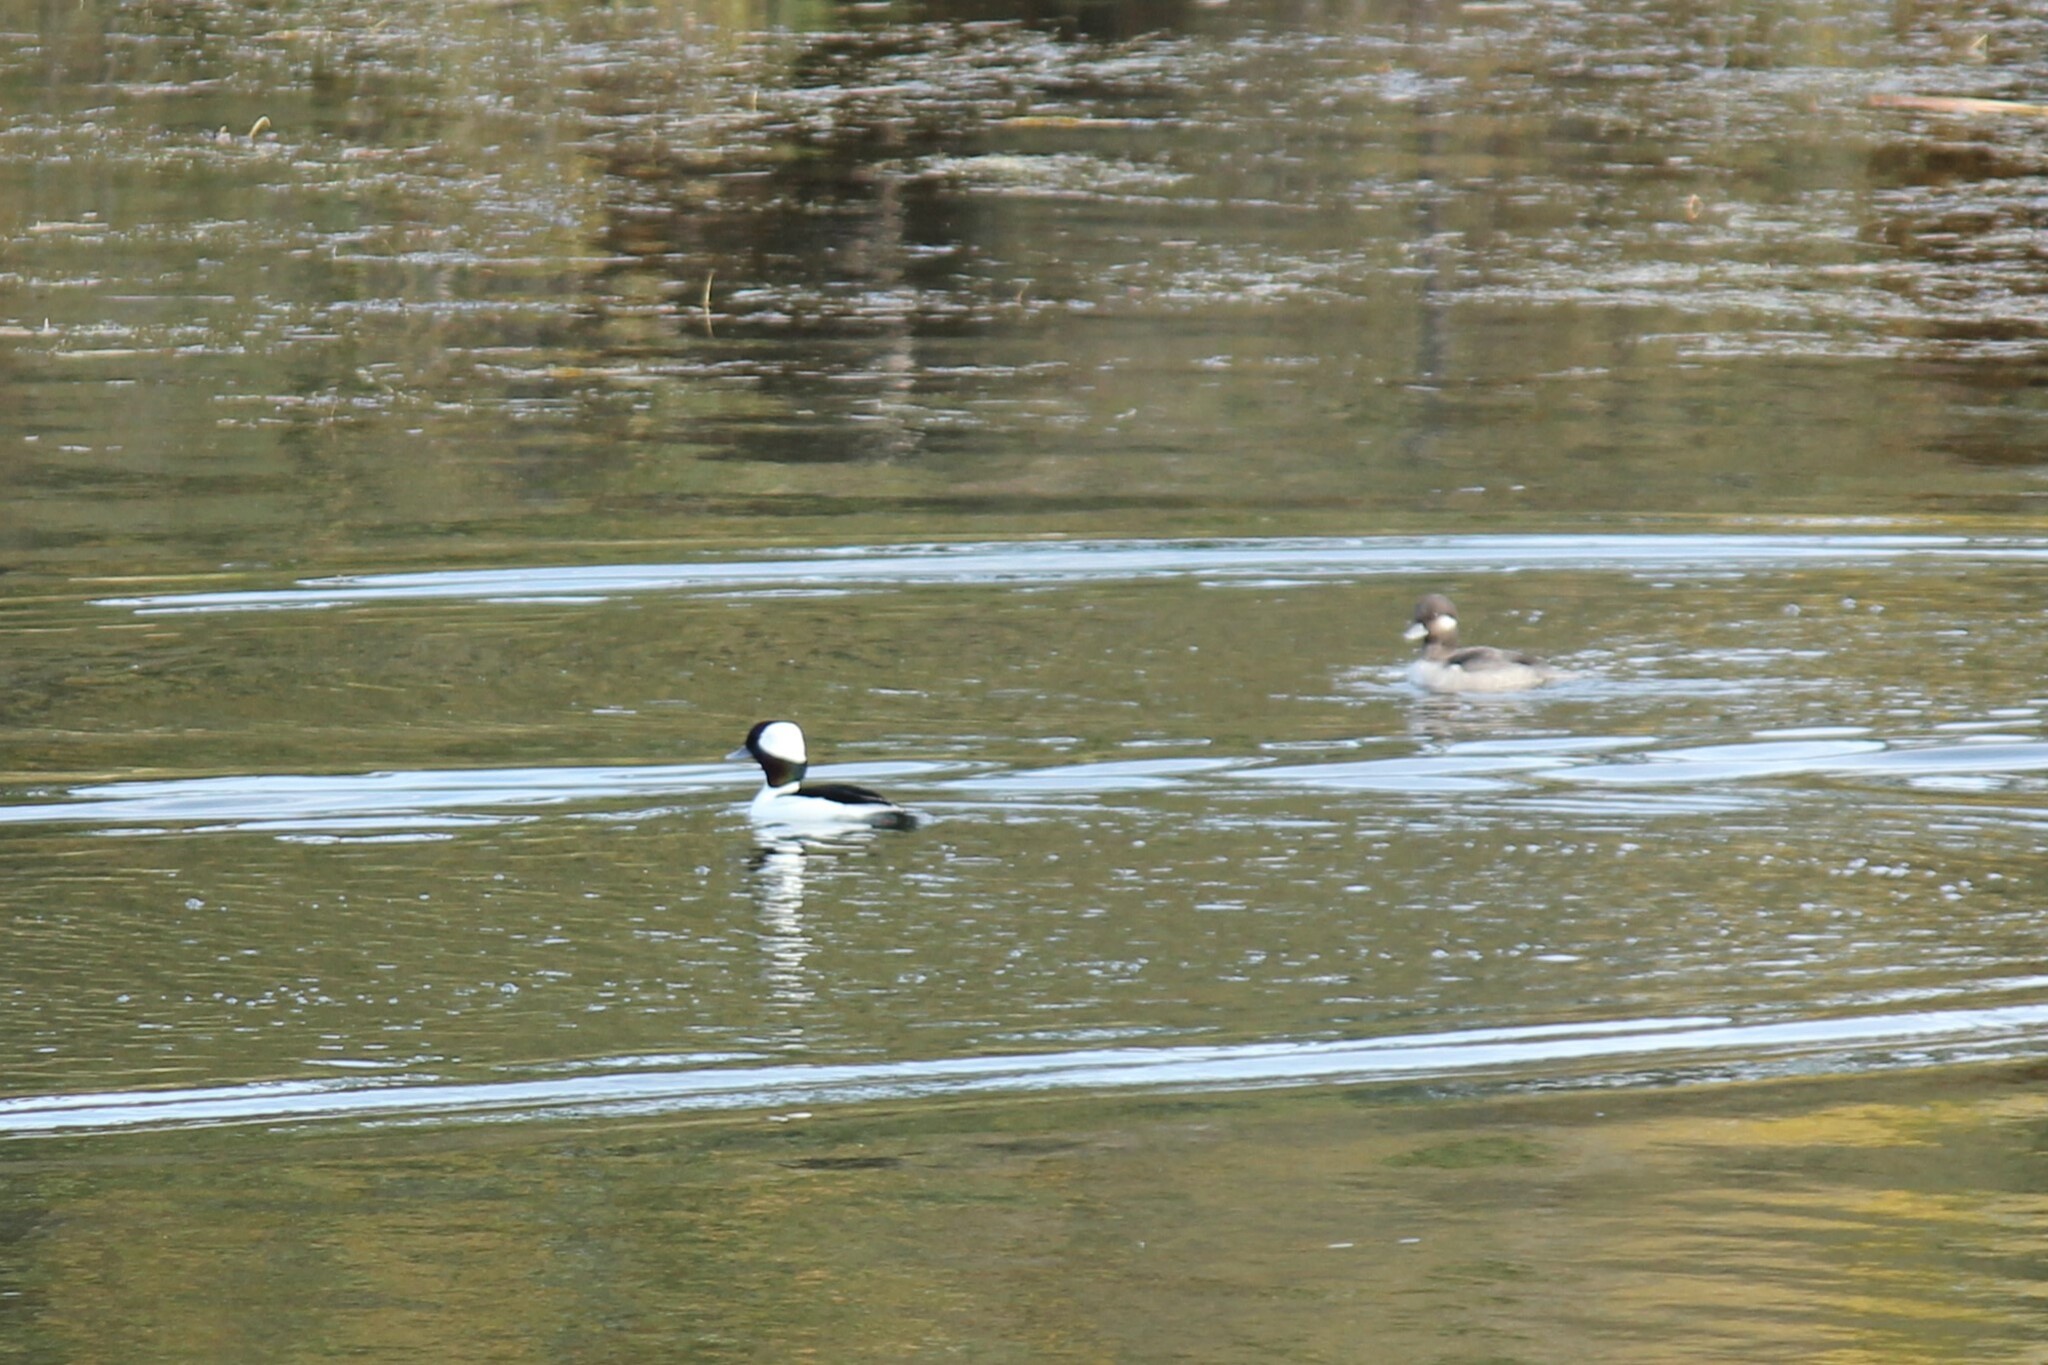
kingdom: Animalia
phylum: Chordata
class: Aves
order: Anseriformes
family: Anatidae
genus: Bucephala
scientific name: Bucephala albeola
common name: Bufflehead
